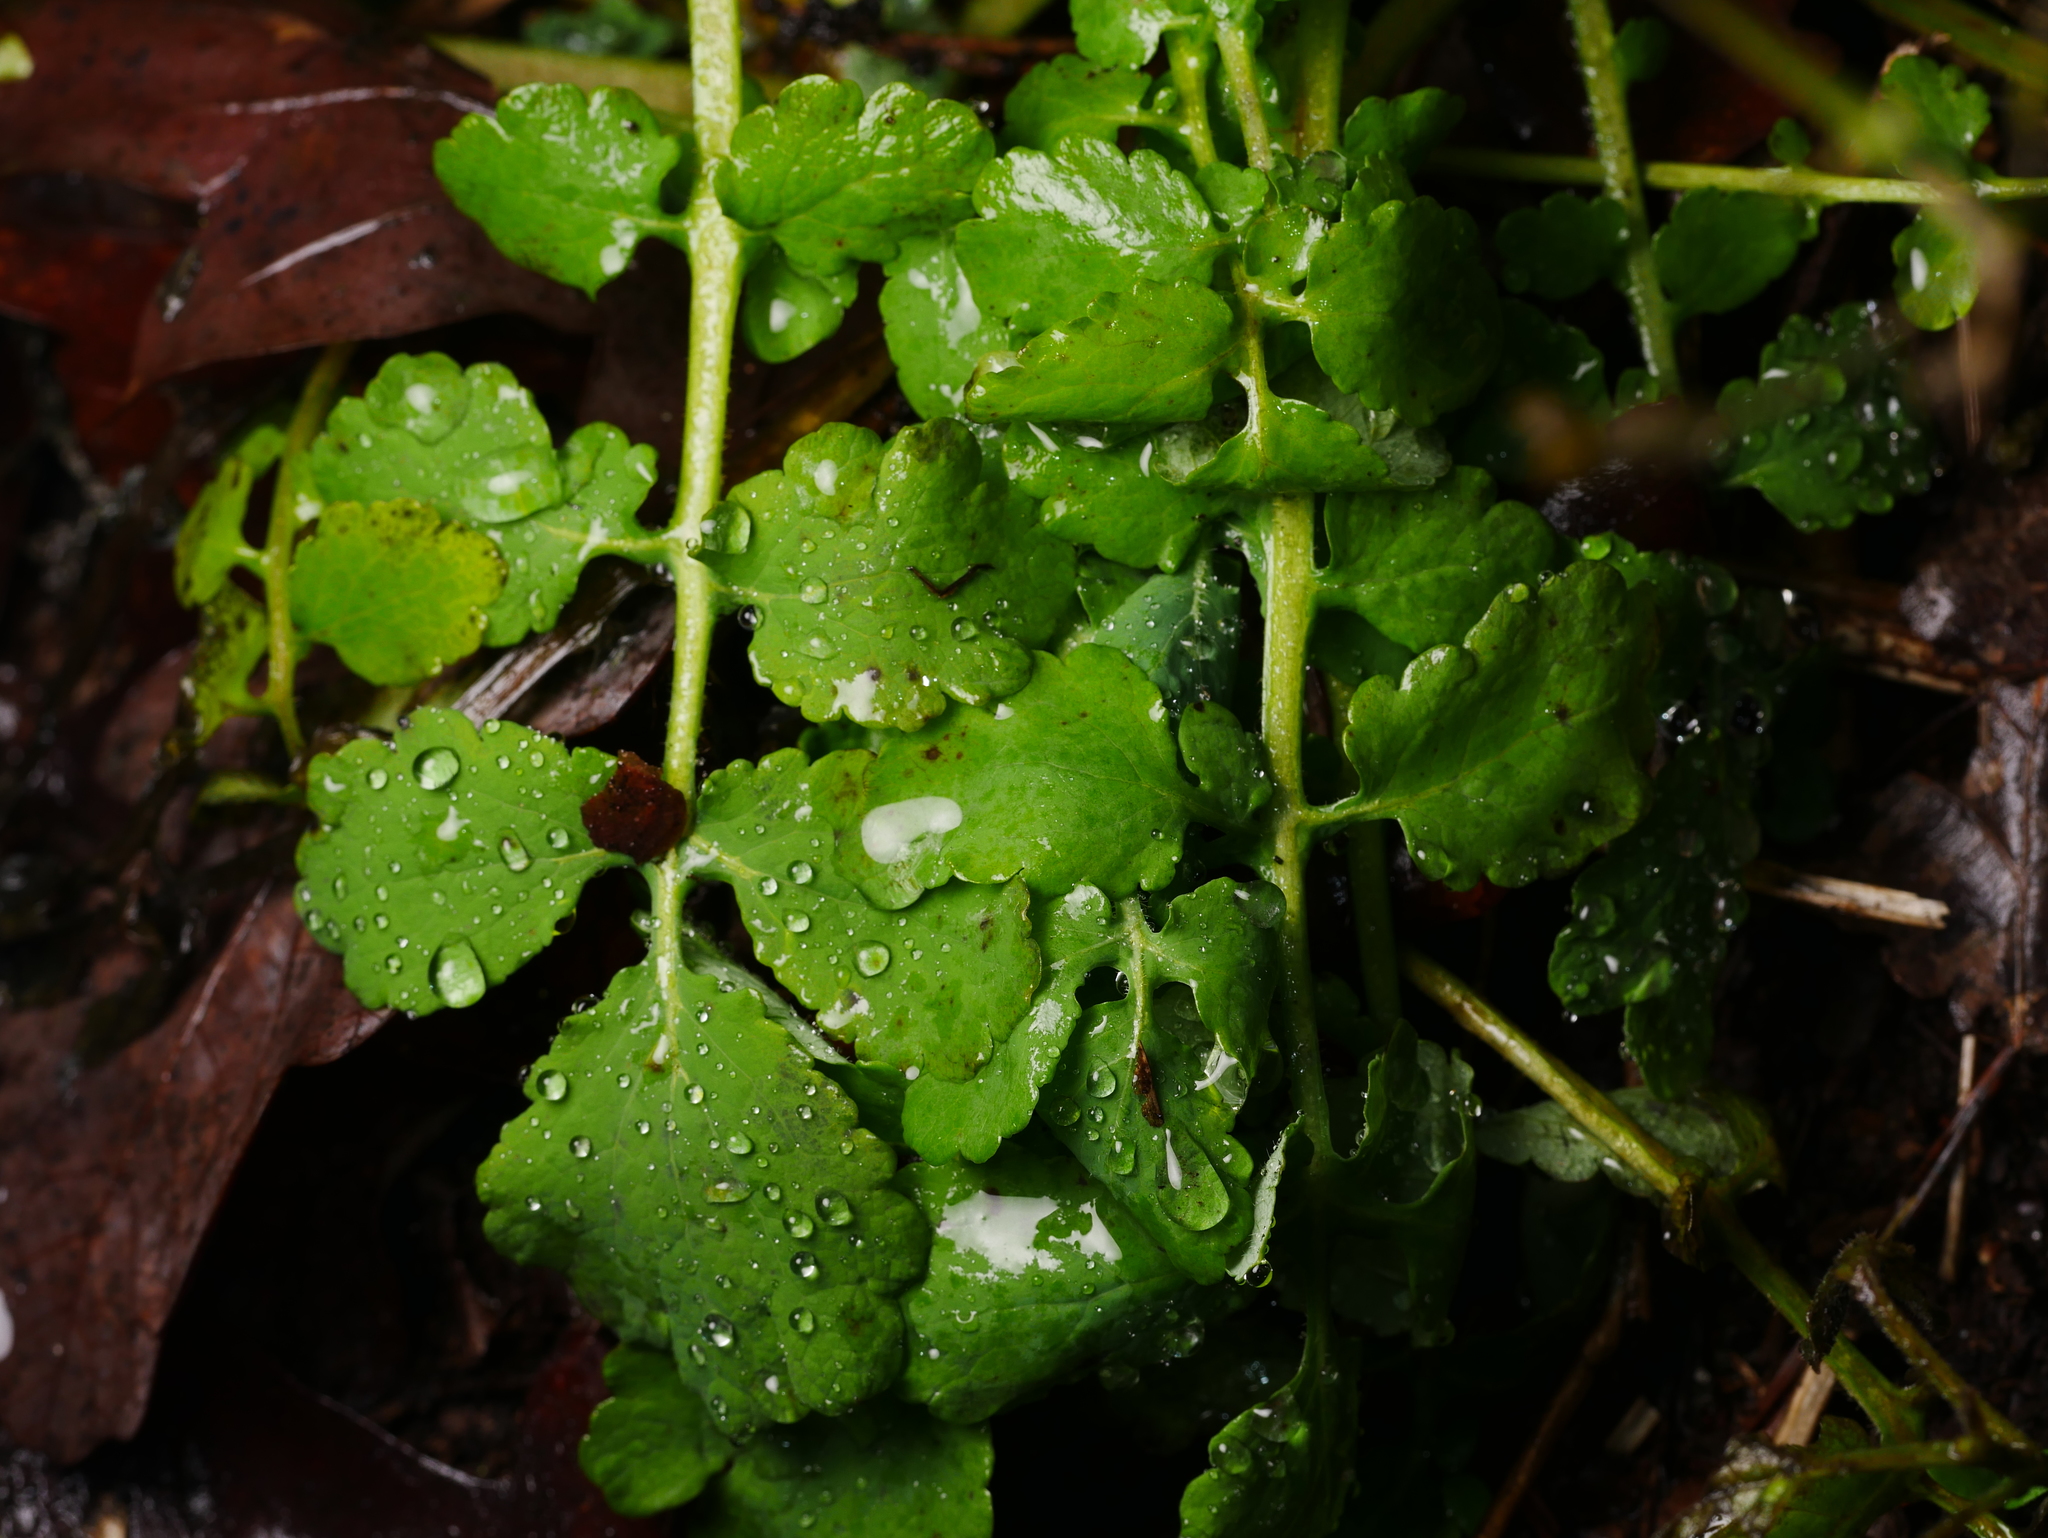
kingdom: Plantae
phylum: Tracheophyta
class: Magnoliopsida
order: Ranunculales
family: Papaveraceae
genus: Chelidonium
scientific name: Chelidonium majus
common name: Greater celandine
